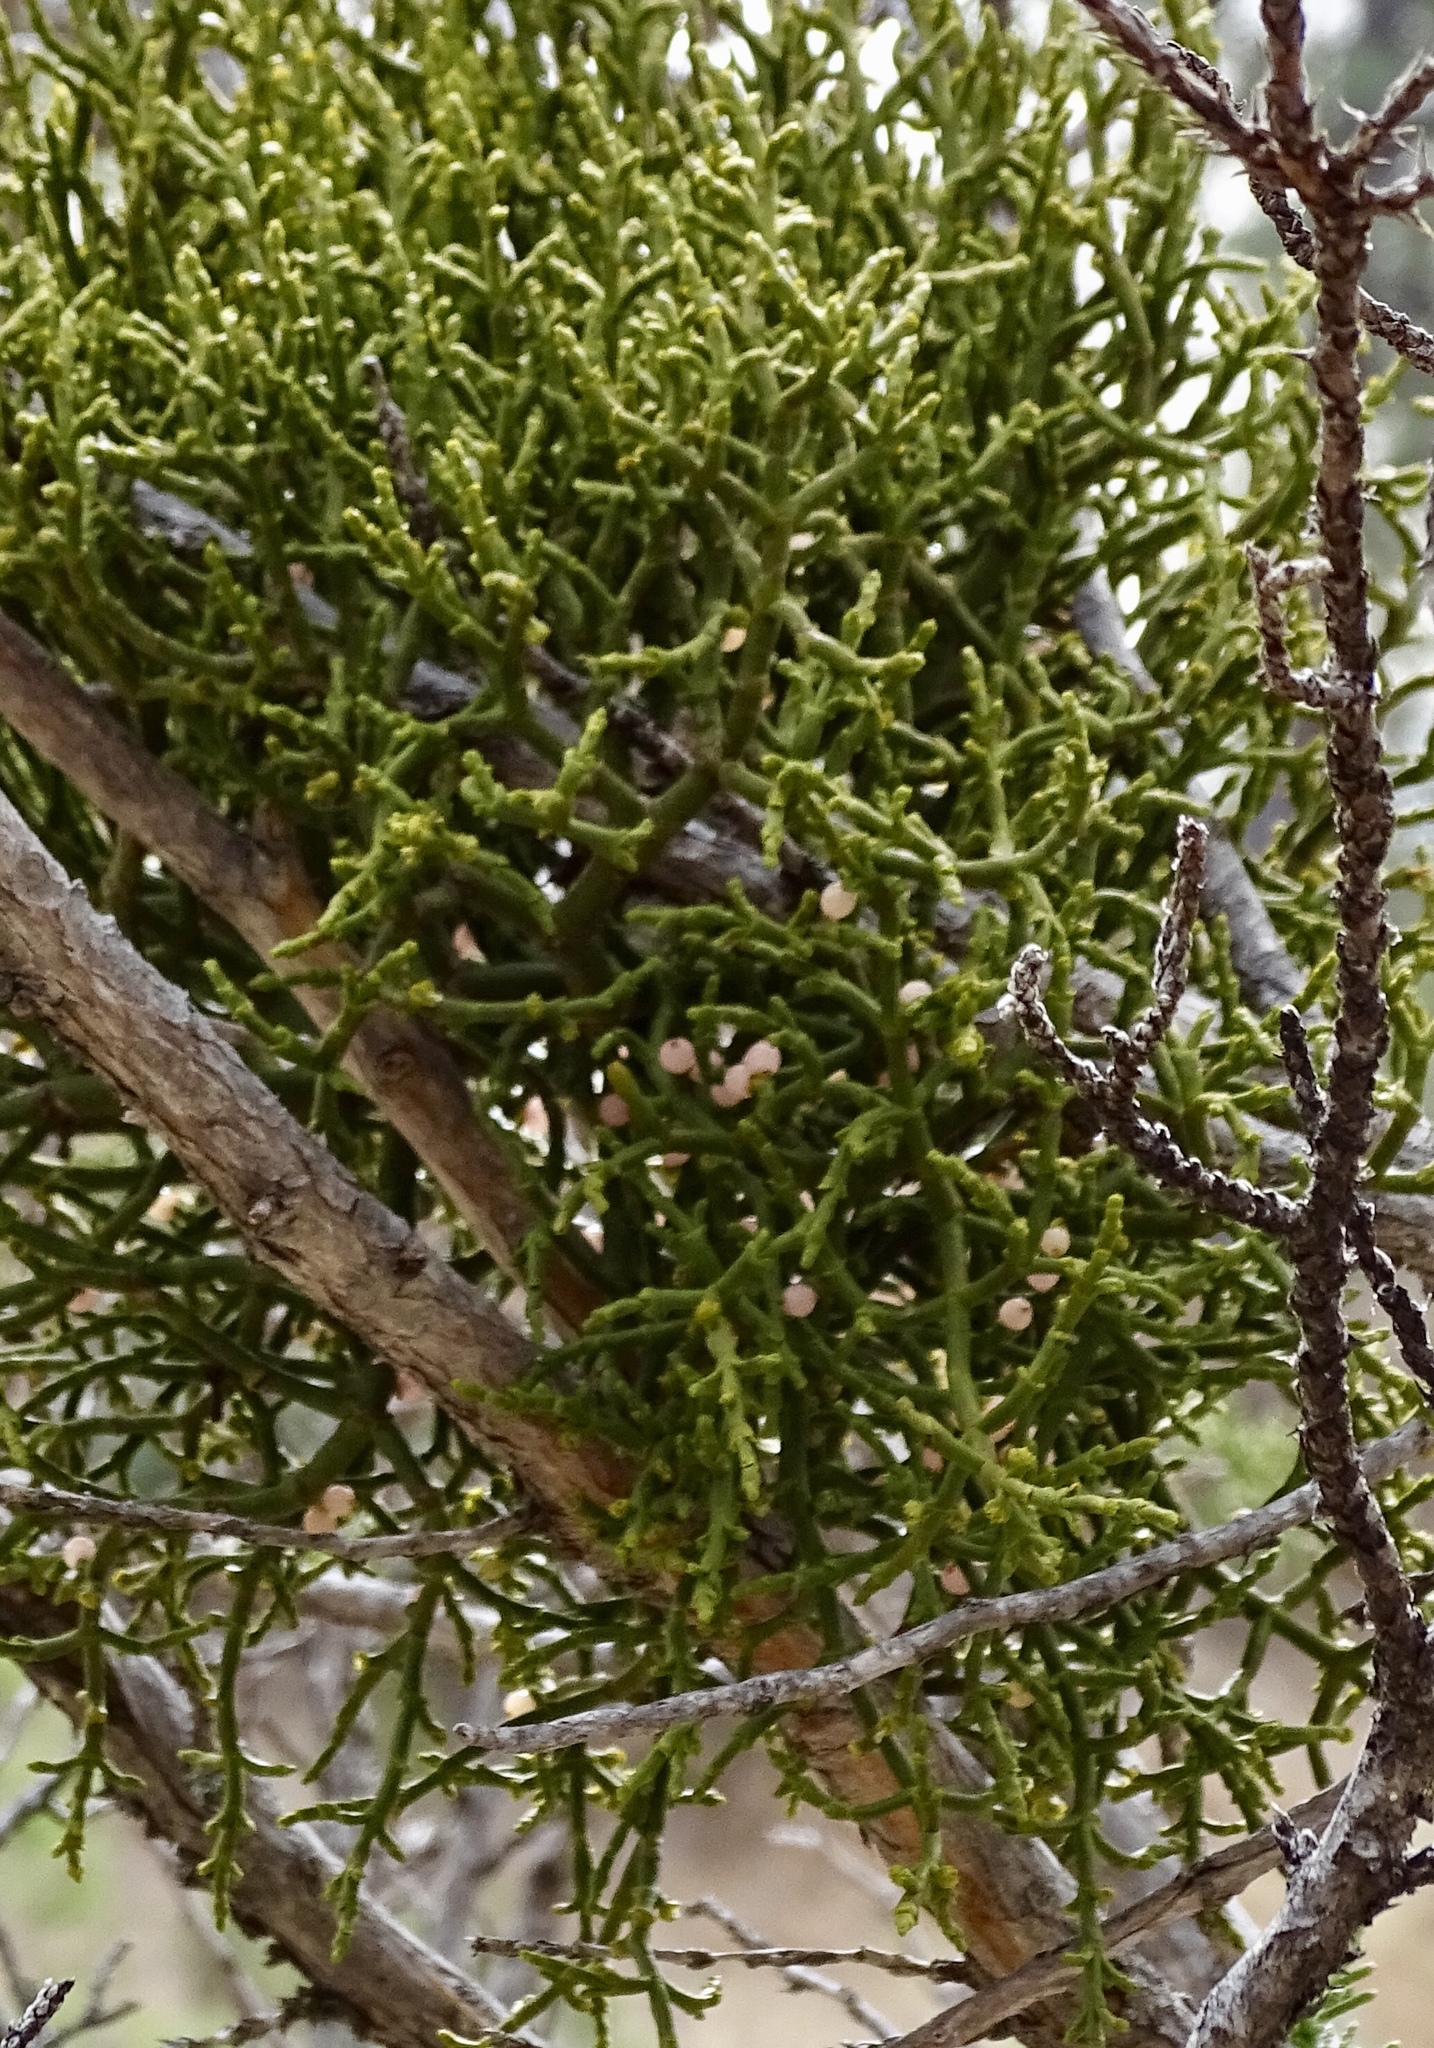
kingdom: Plantae
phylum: Tracheophyta
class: Magnoliopsida
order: Santalales
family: Viscaceae
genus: Phoradendron
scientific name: Phoradendron juniperinum
